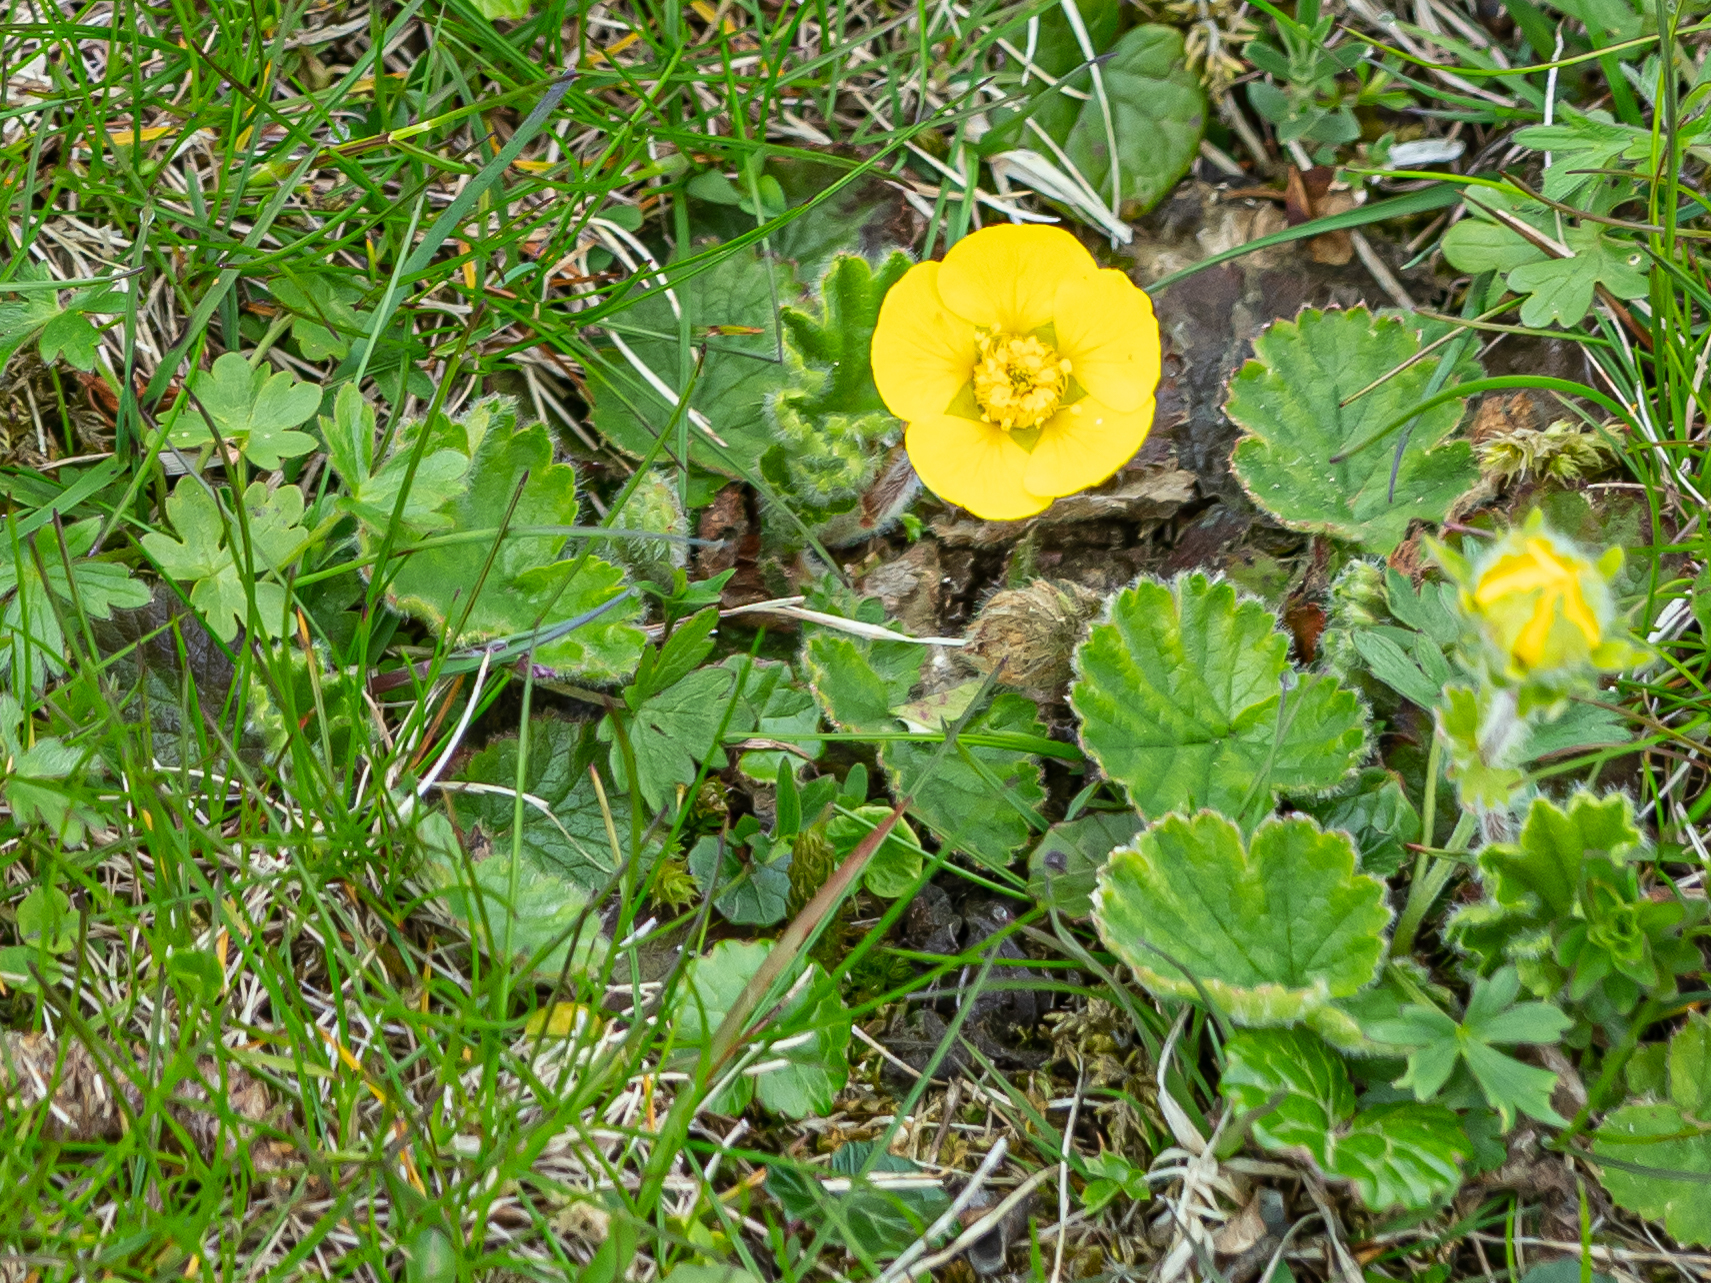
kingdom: Plantae
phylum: Tracheophyta
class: Magnoliopsida
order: Rosales
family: Rosaceae
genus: Geum
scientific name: Geum montanum
